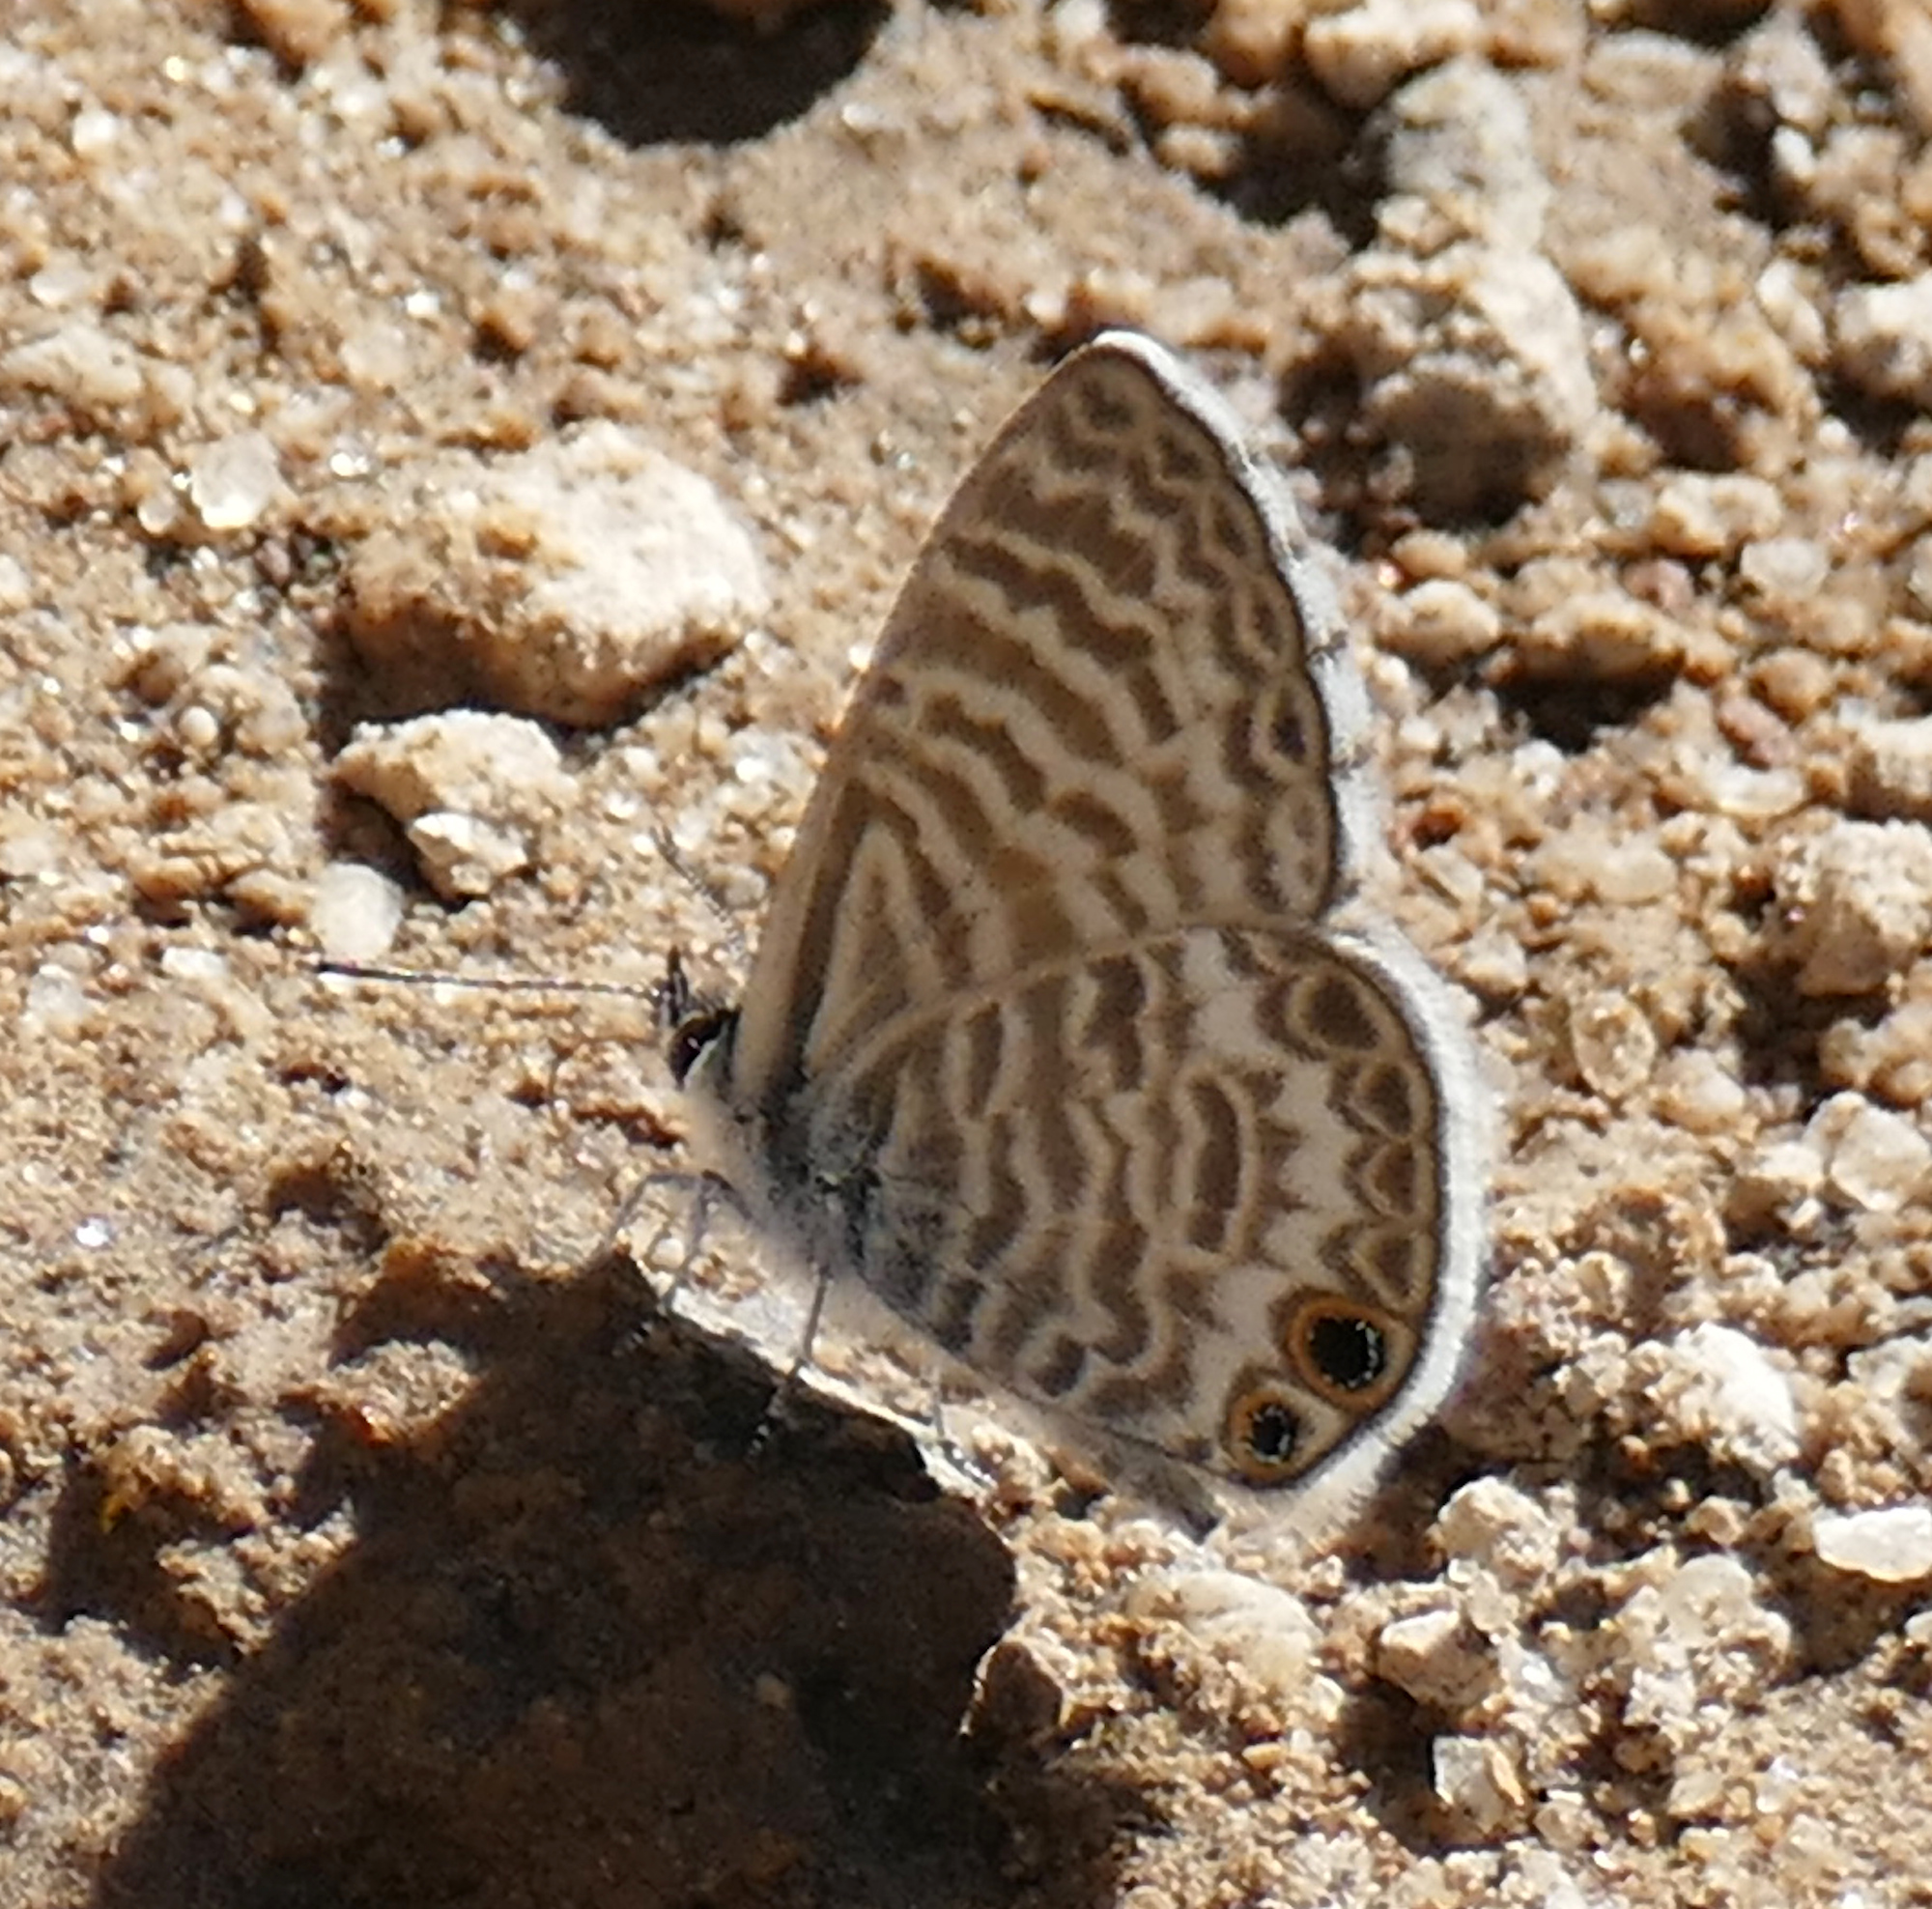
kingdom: Animalia
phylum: Arthropoda
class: Insecta
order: Lepidoptera
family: Lycaenidae
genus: Leptotes
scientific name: Leptotes marina
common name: Marine blue
